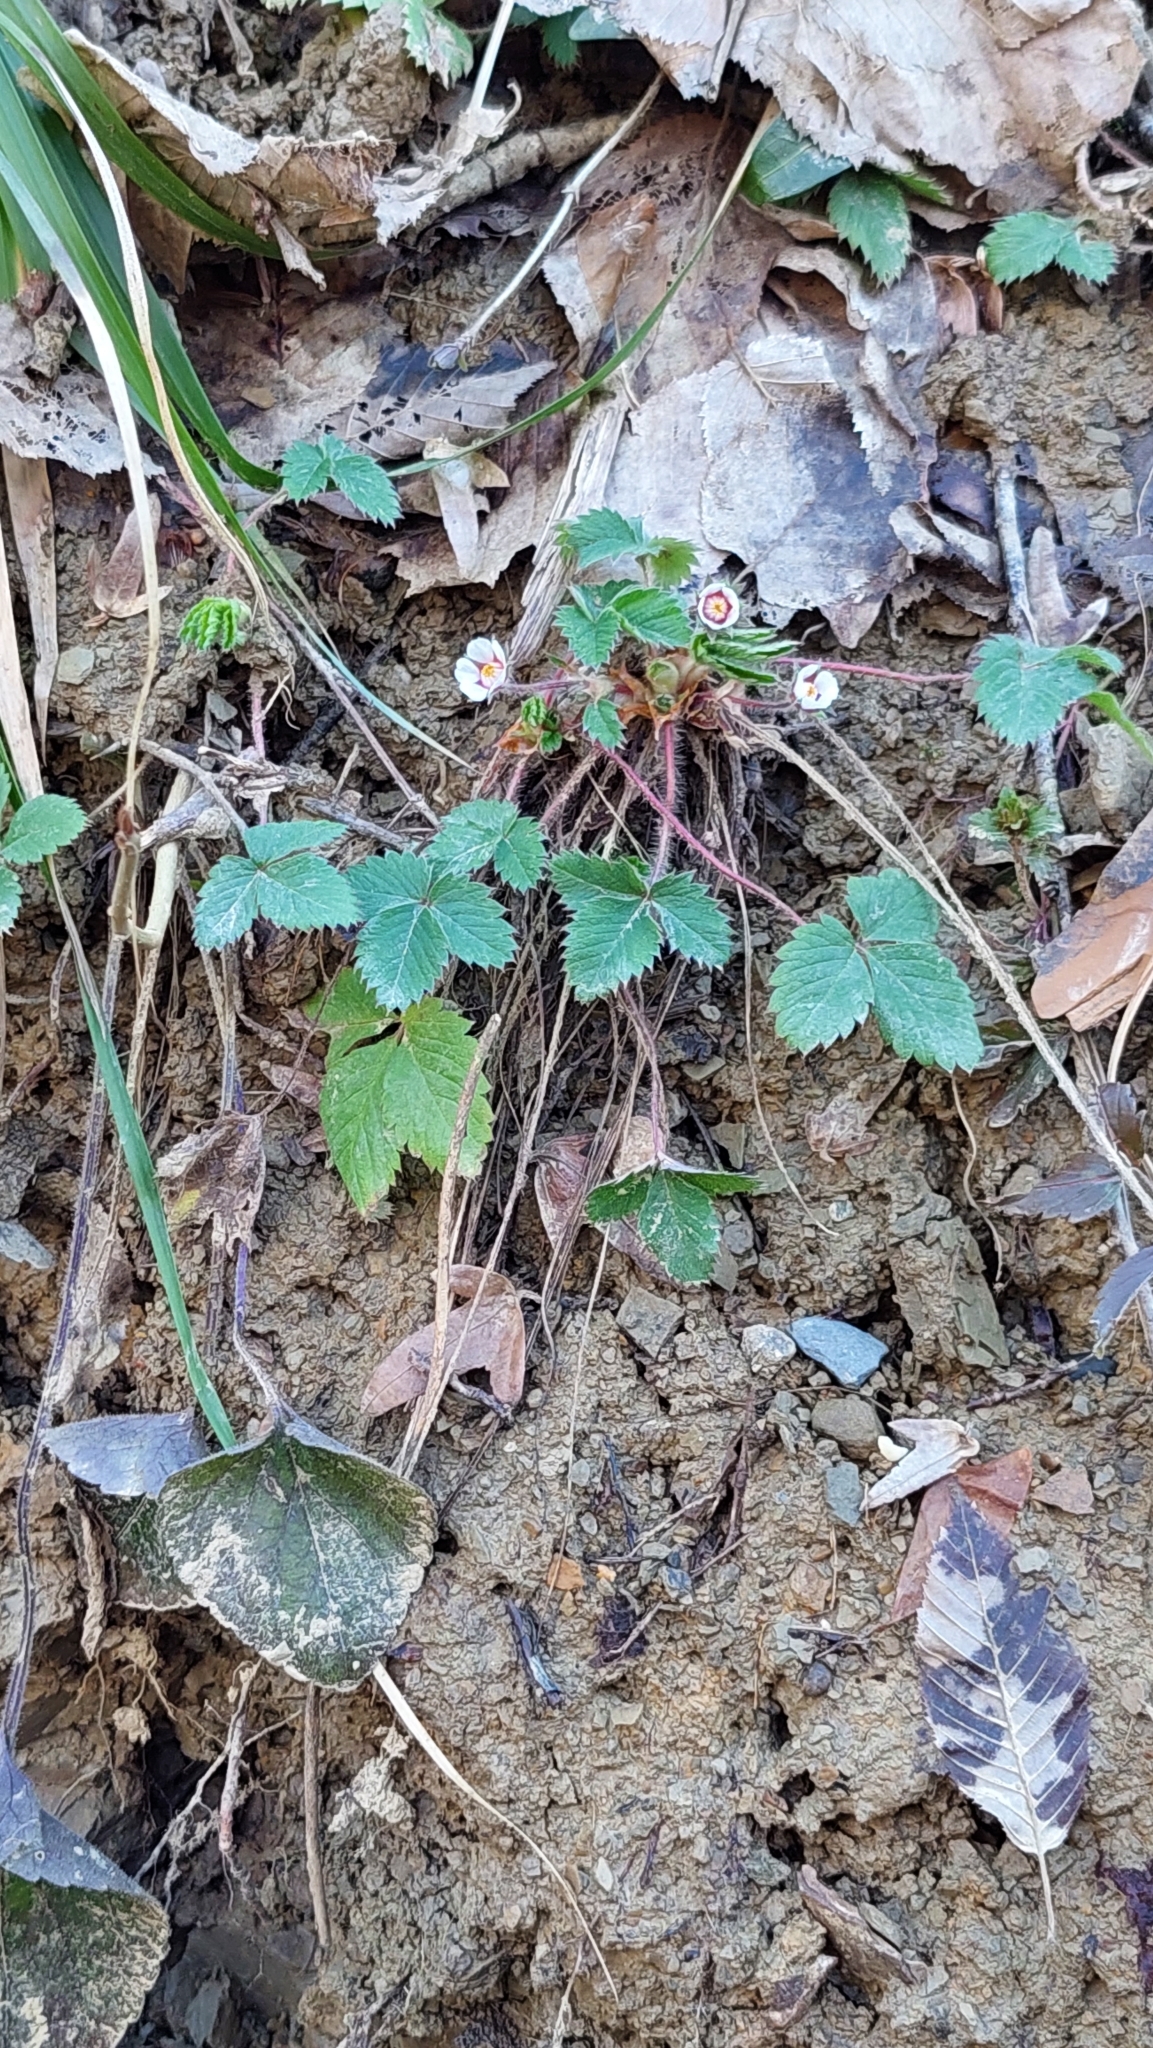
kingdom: Plantae
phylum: Tracheophyta
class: Magnoliopsida
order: Rosales
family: Rosaceae
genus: Potentilla
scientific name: Potentilla micrantha
